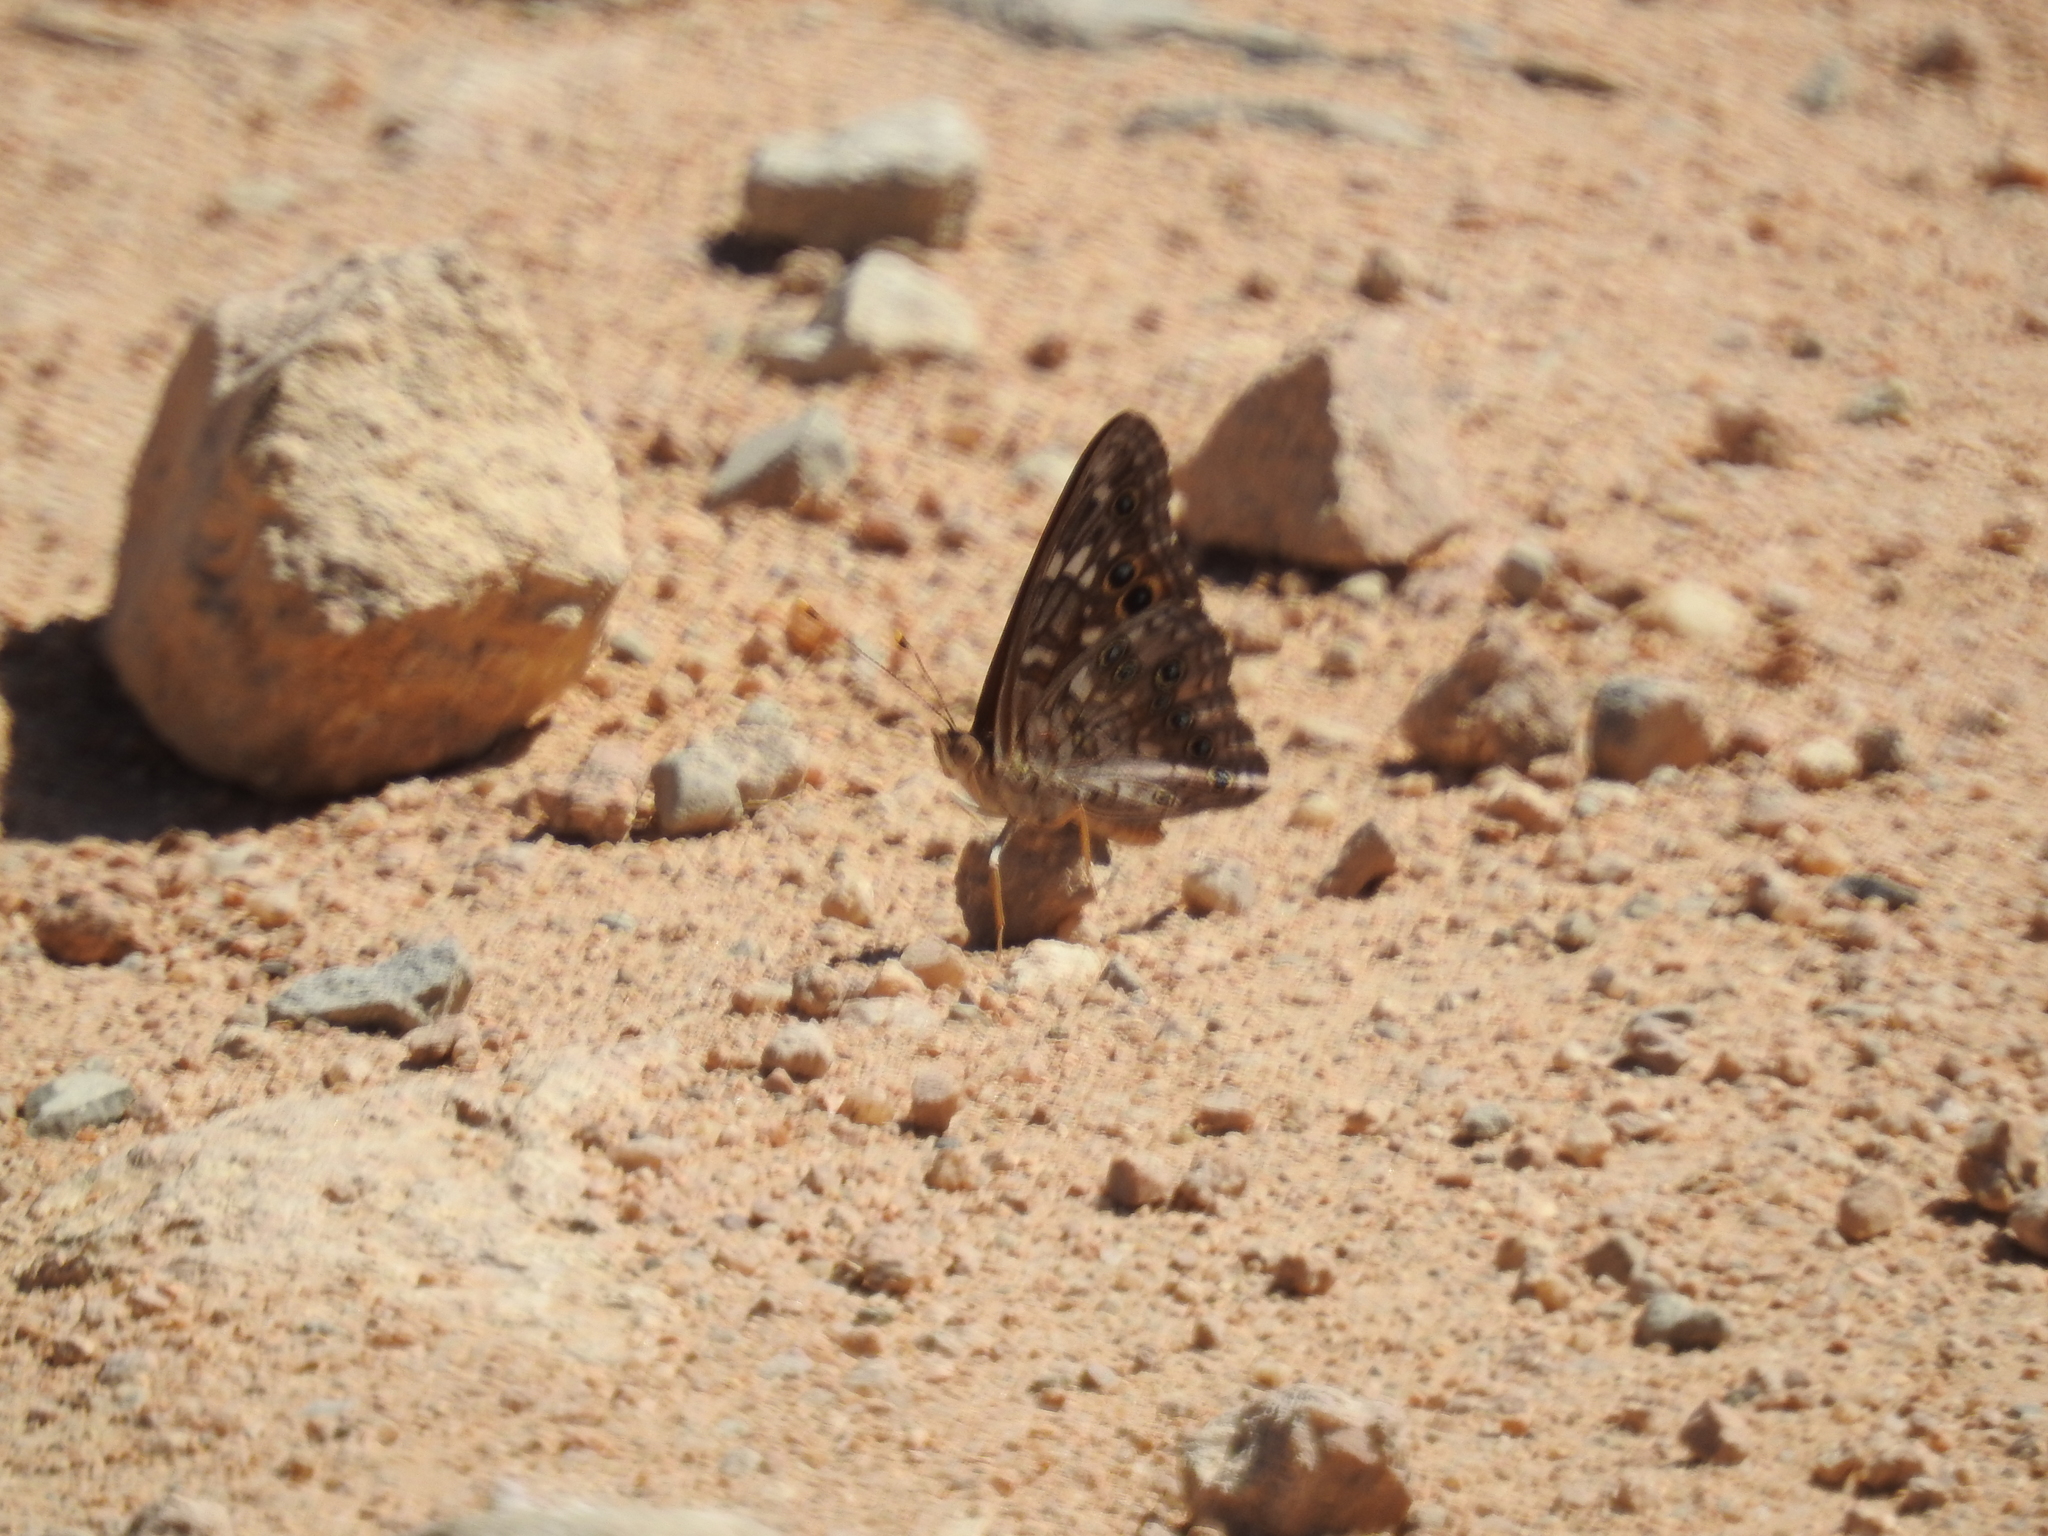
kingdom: Animalia
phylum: Arthropoda
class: Insecta
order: Lepidoptera
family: Nymphalidae
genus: Asterocampa
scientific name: Asterocampa leilia
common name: Empress leilia
